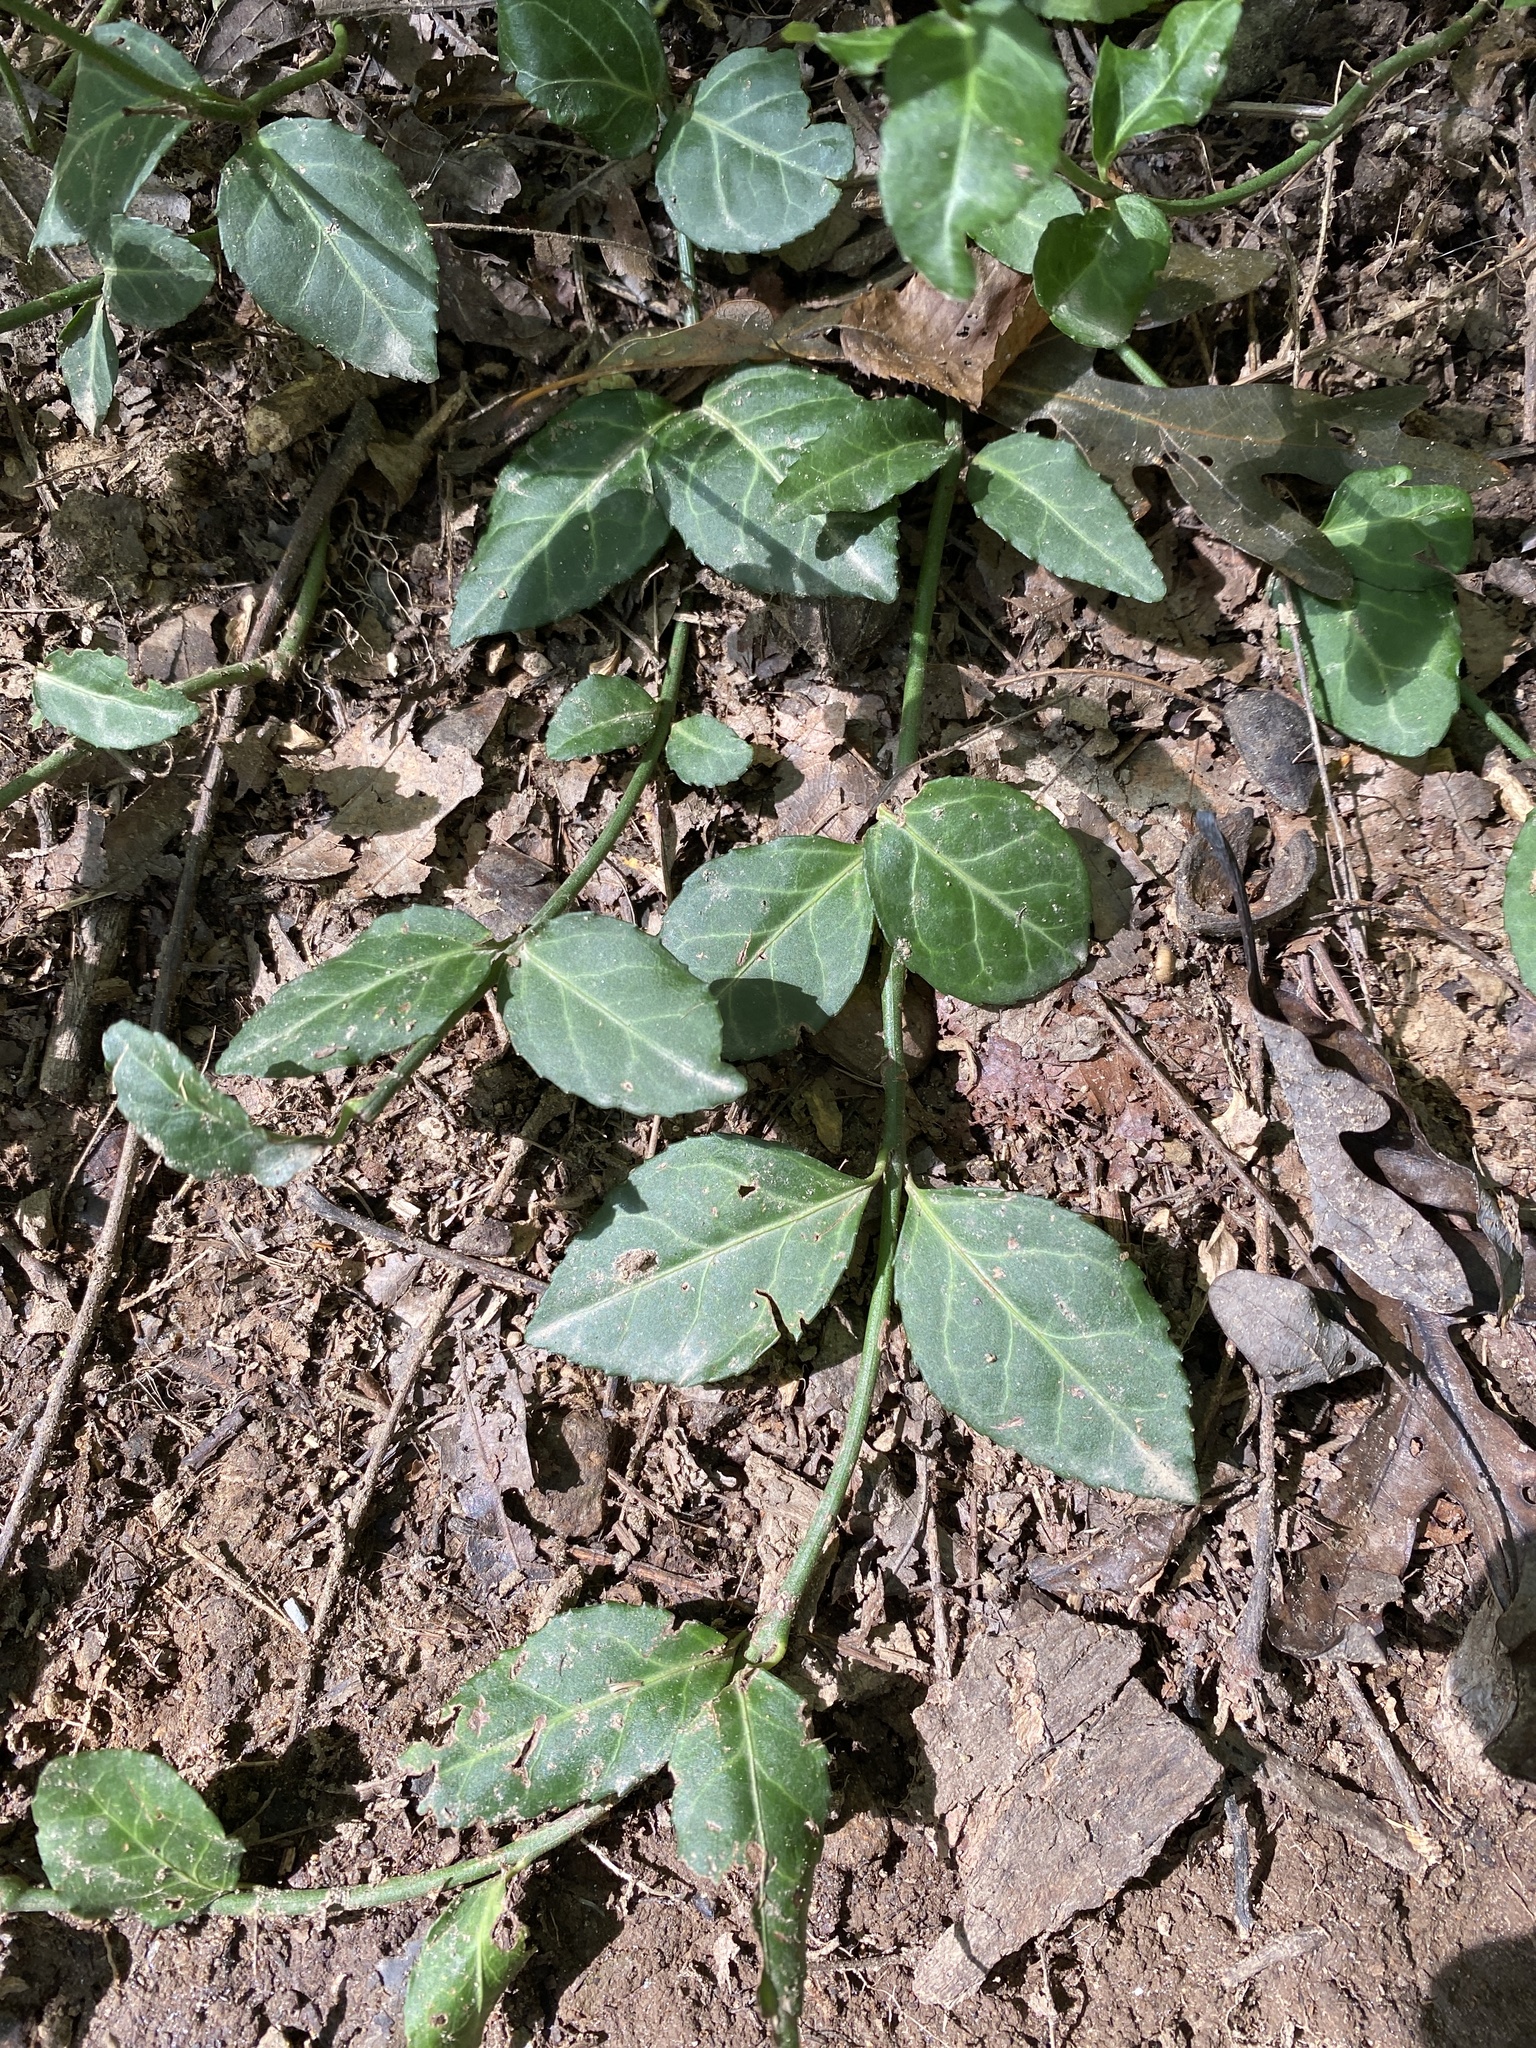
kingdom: Plantae
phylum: Tracheophyta
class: Magnoliopsida
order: Celastrales
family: Celastraceae
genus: Euonymus
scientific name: Euonymus fortunei
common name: Climbing euonymus
